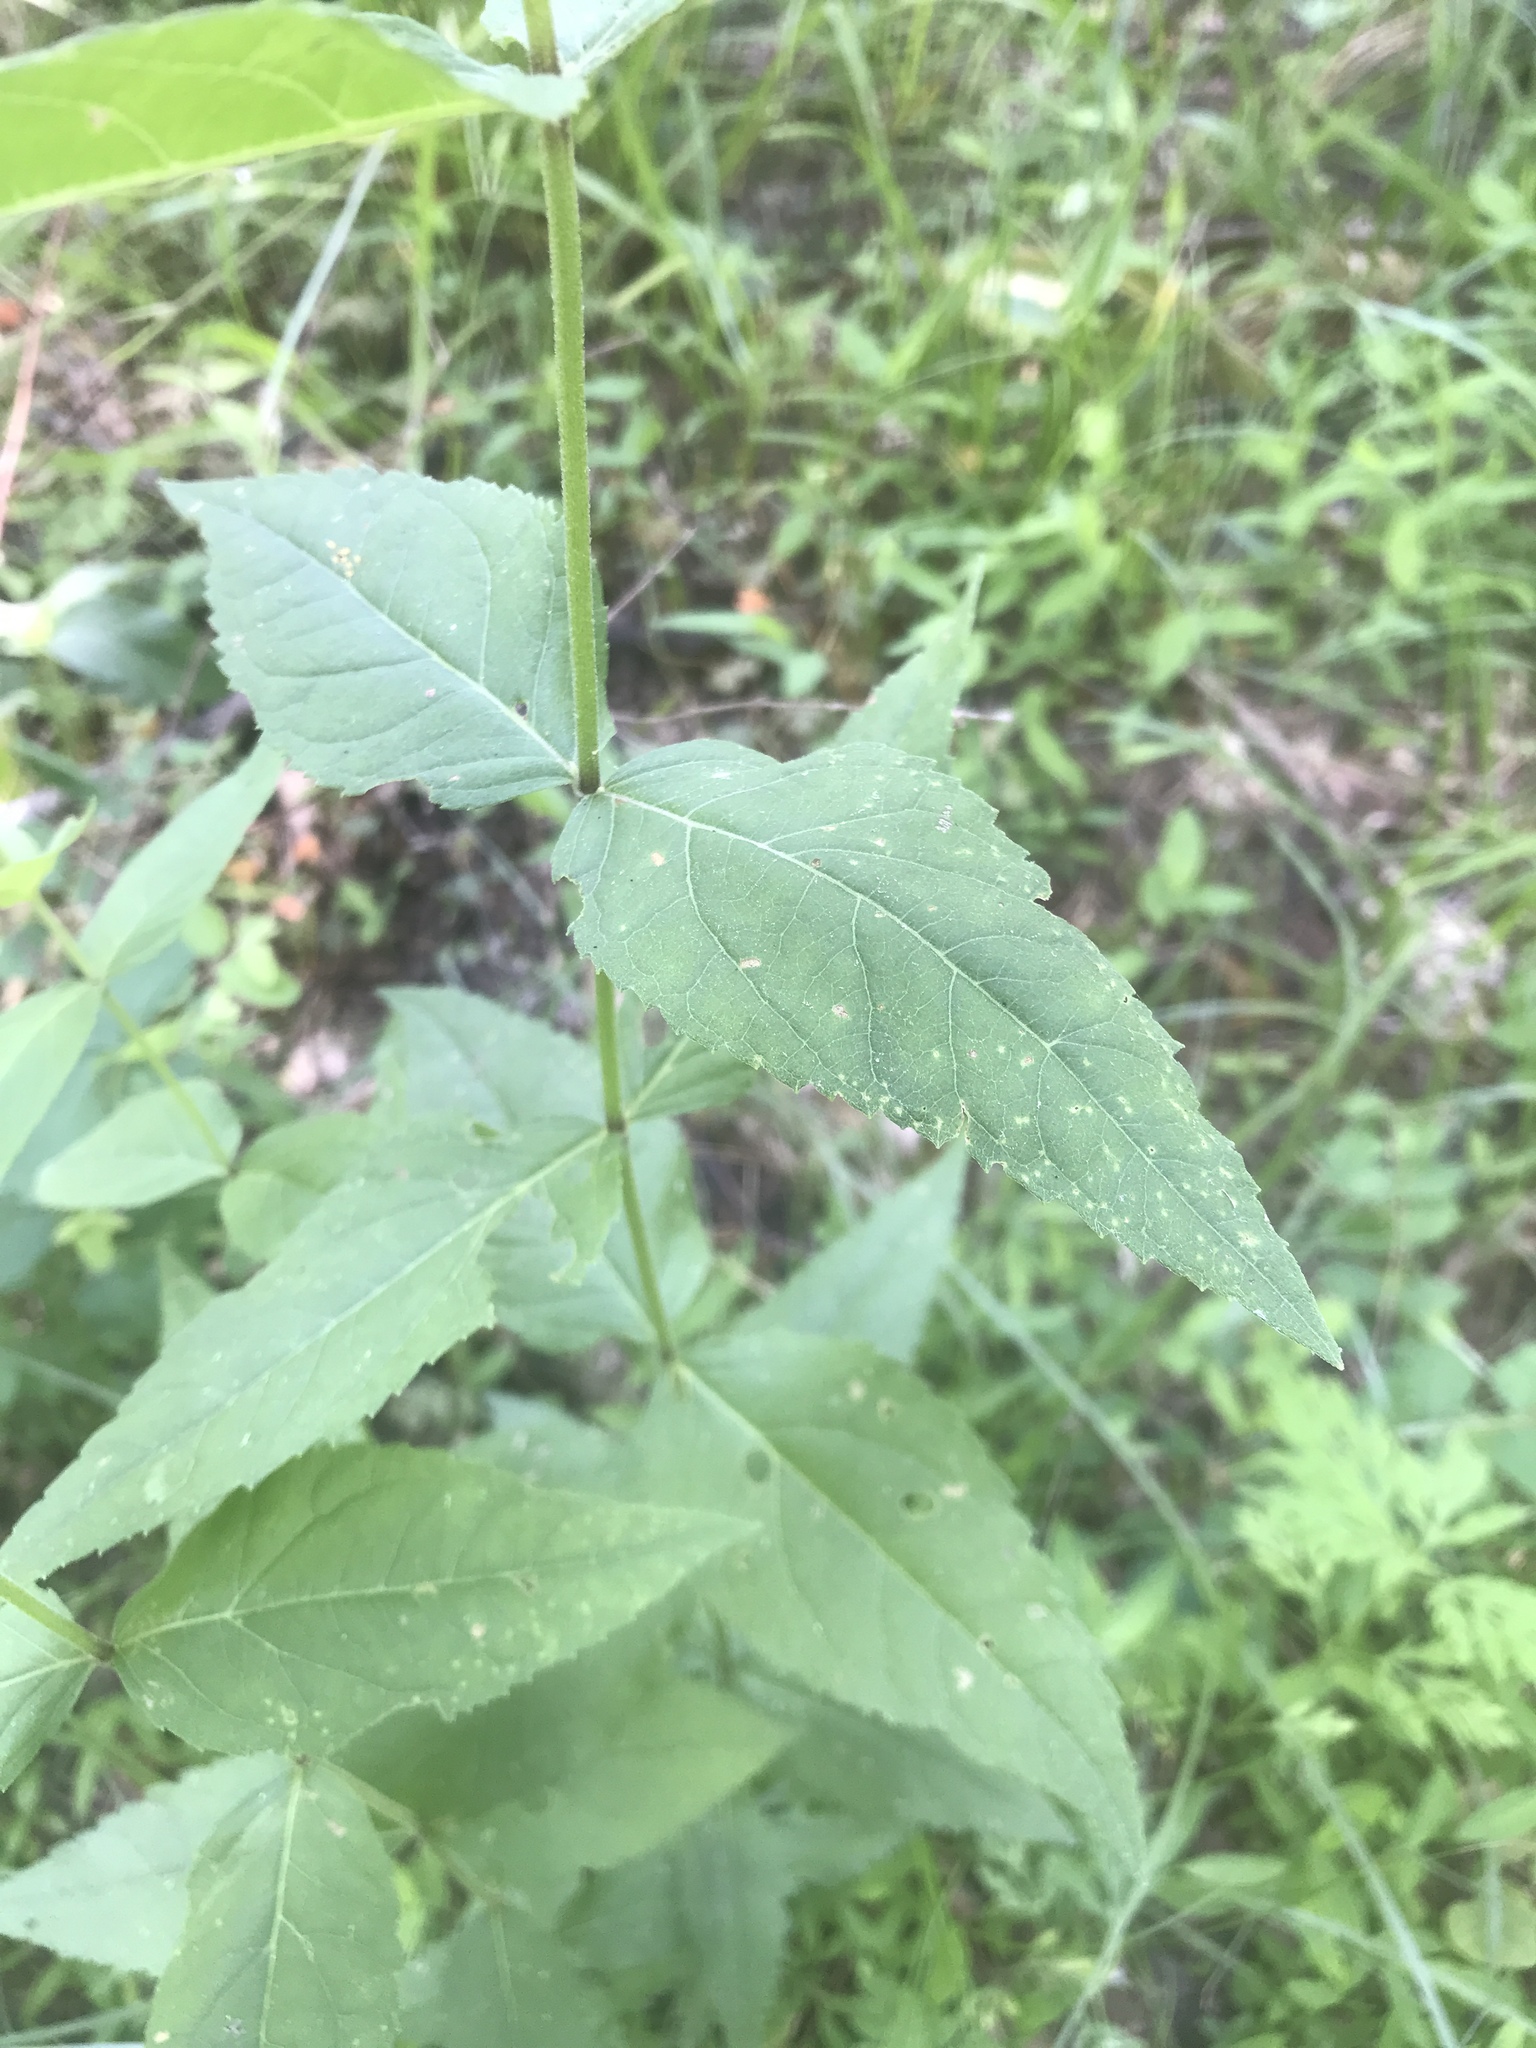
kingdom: Plantae
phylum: Tracheophyta
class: Magnoliopsida
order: Asterales
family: Asteraceae
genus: Eupatorium
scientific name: Eupatorium godfreyanum
